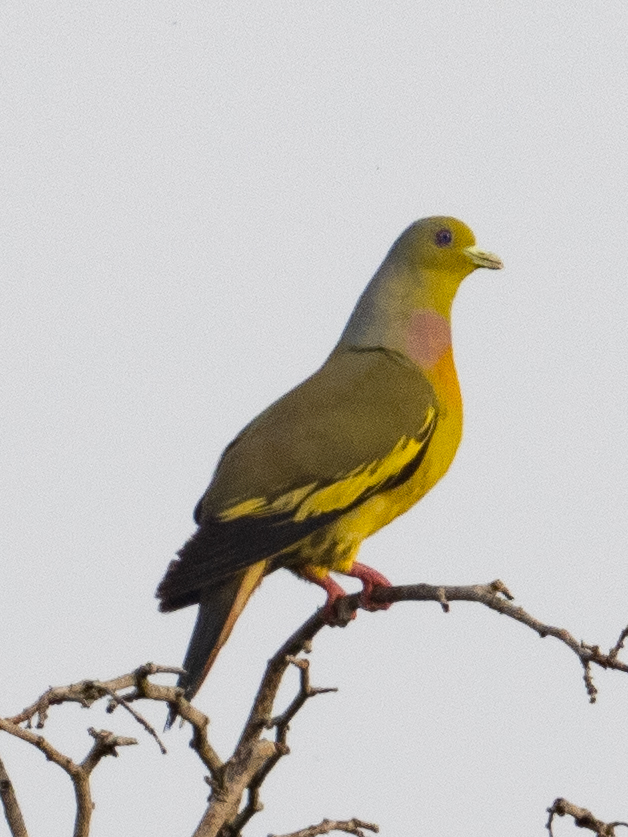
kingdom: Animalia
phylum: Chordata
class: Aves
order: Columbiformes
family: Columbidae
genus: Treron
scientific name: Treron bicinctus
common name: Orange-breasted green pigeon
